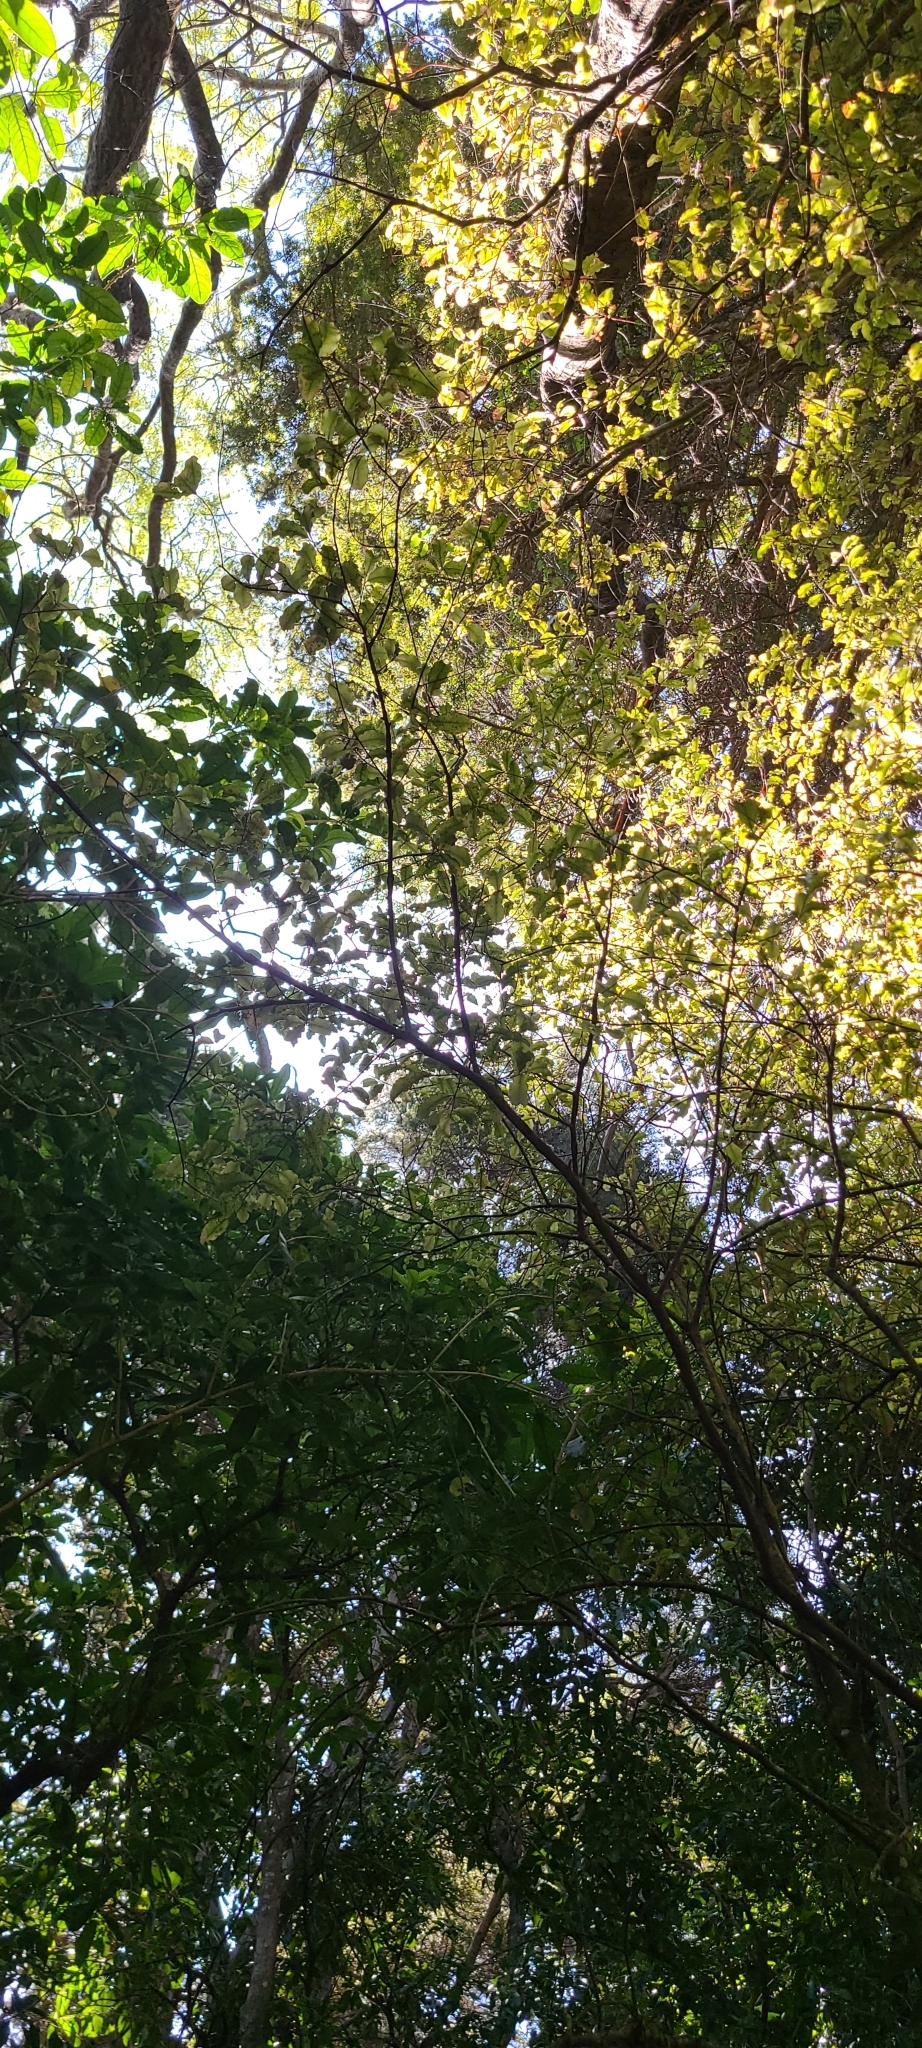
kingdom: Plantae
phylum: Tracheophyta
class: Magnoliopsida
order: Santalales
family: Loranthaceae
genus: Tupeia
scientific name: Tupeia antarctica
